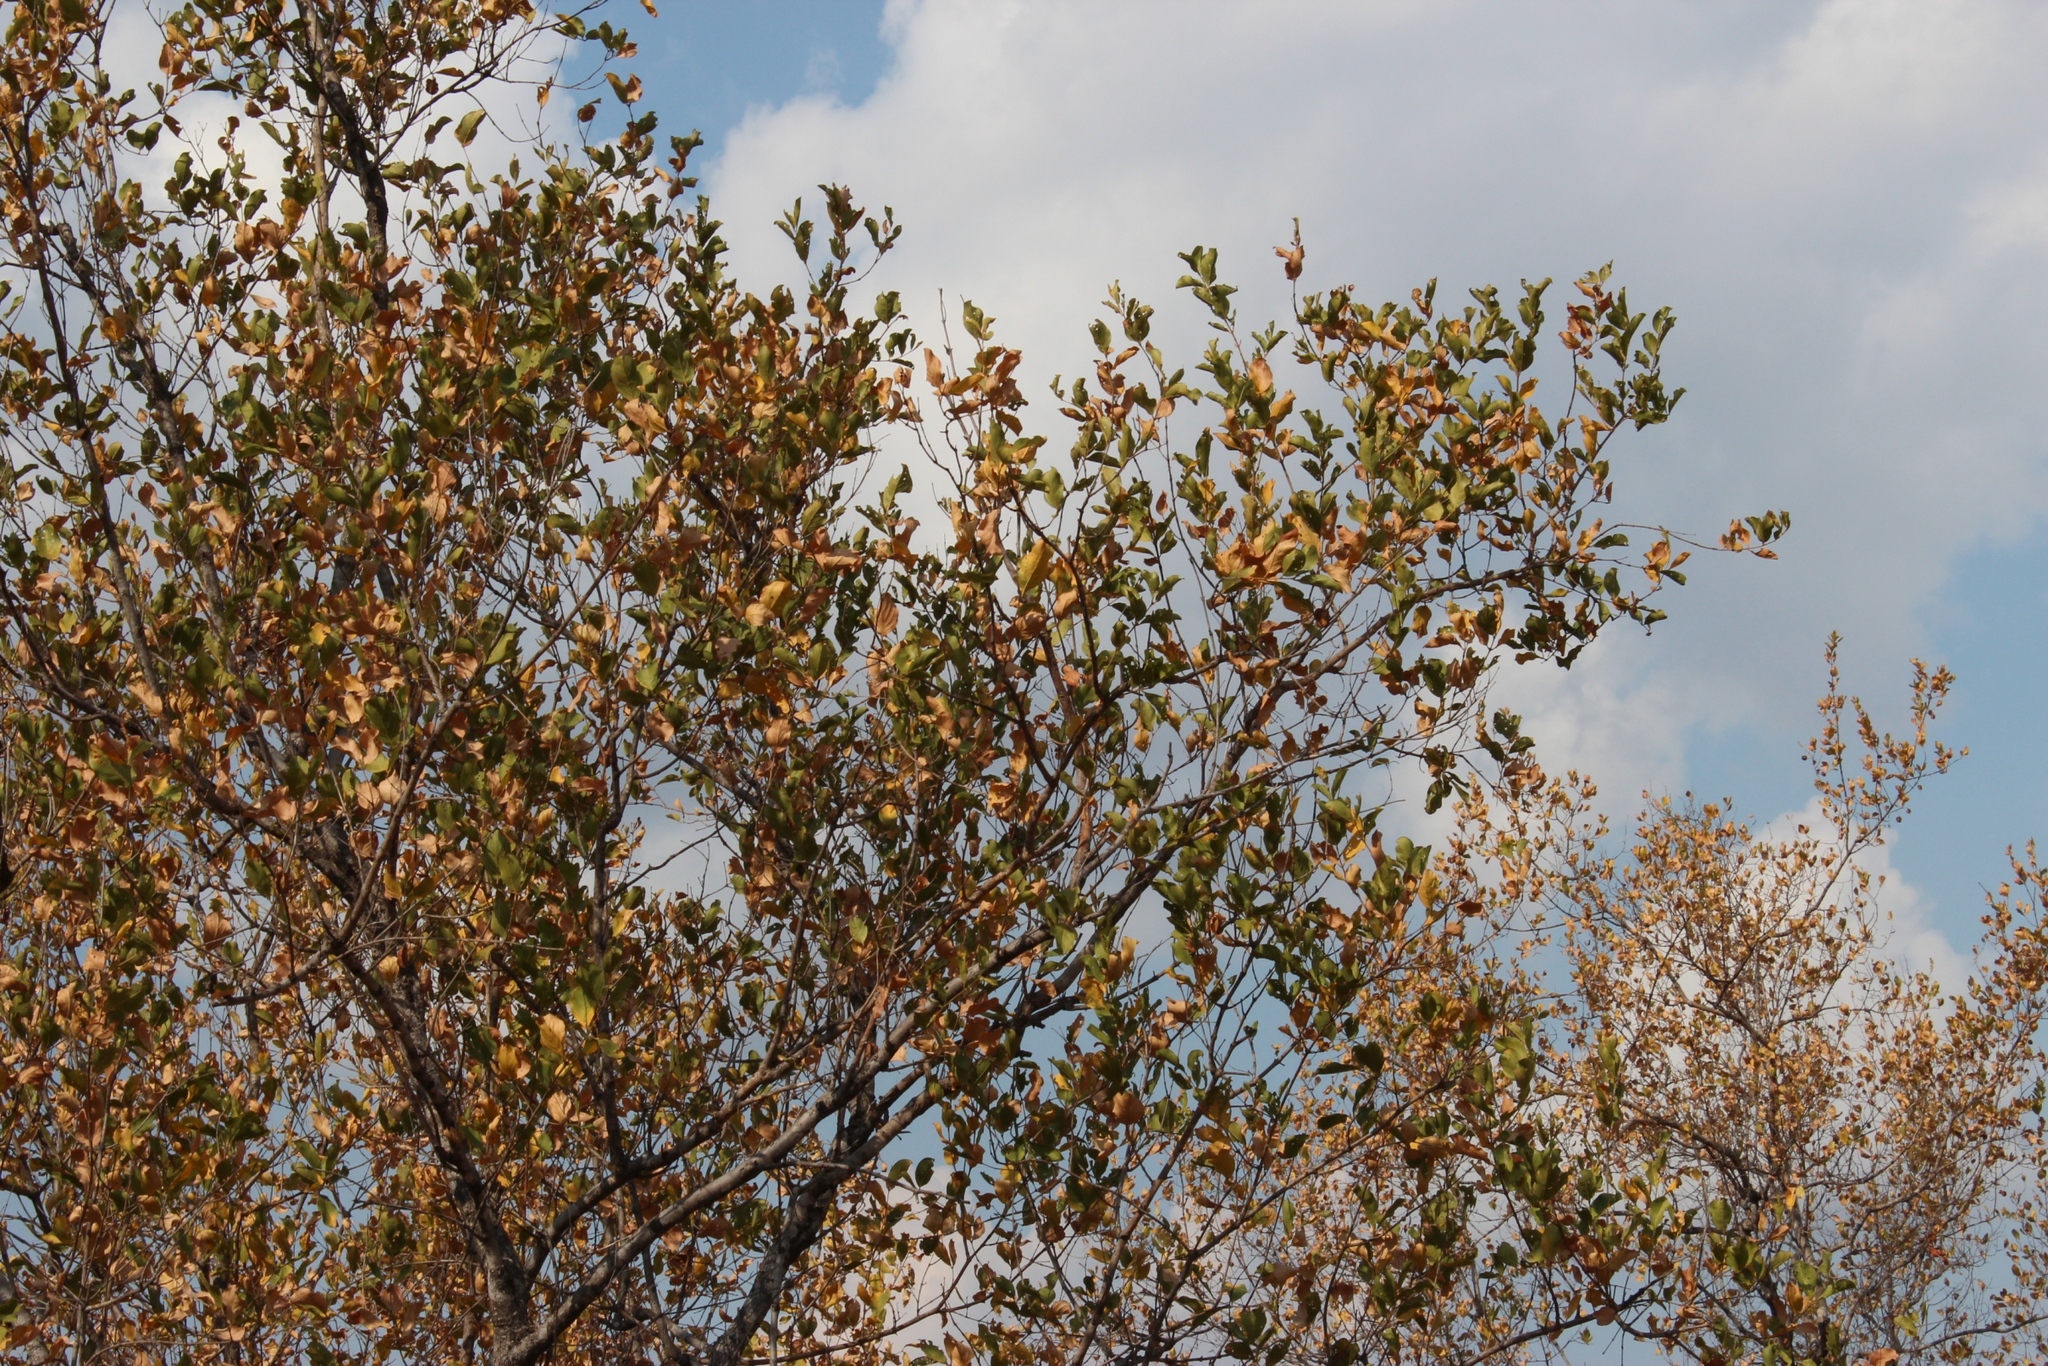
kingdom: Plantae
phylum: Tracheophyta
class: Magnoliopsida
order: Myrtales
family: Combretaceae
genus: Combretum
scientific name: Combretum apiculatum
